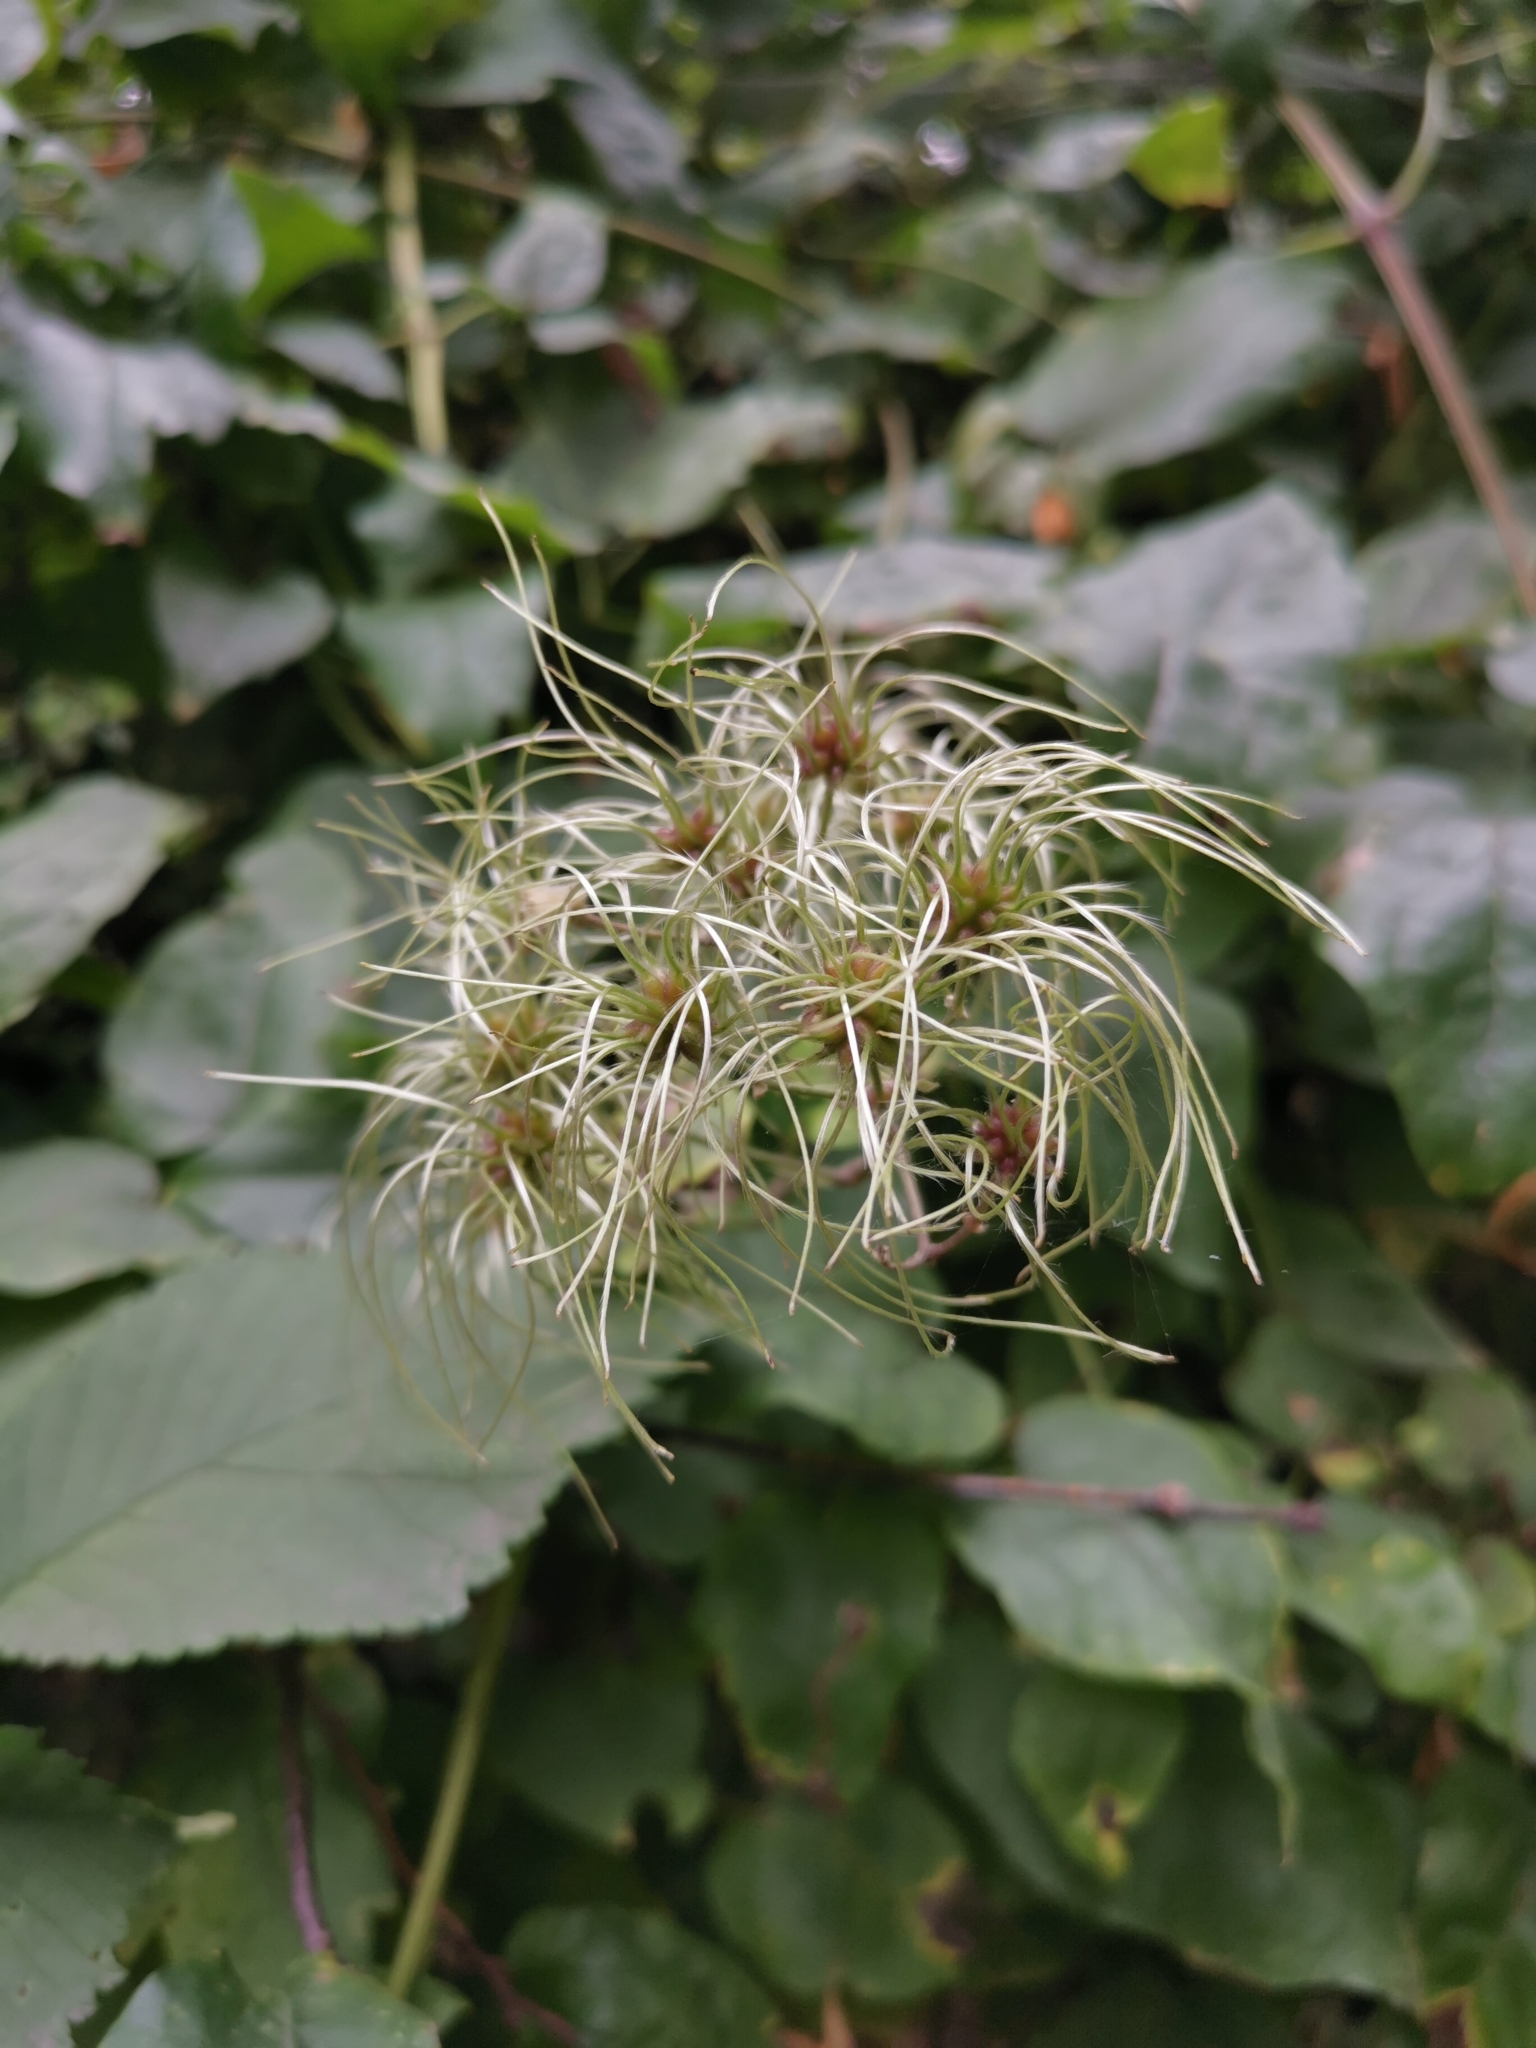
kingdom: Plantae
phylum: Tracheophyta
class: Magnoliopsida
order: Ranunculales
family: Ranunculaceae
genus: Clematis
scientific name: Clematis vitalba
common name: Evergreen clematis
